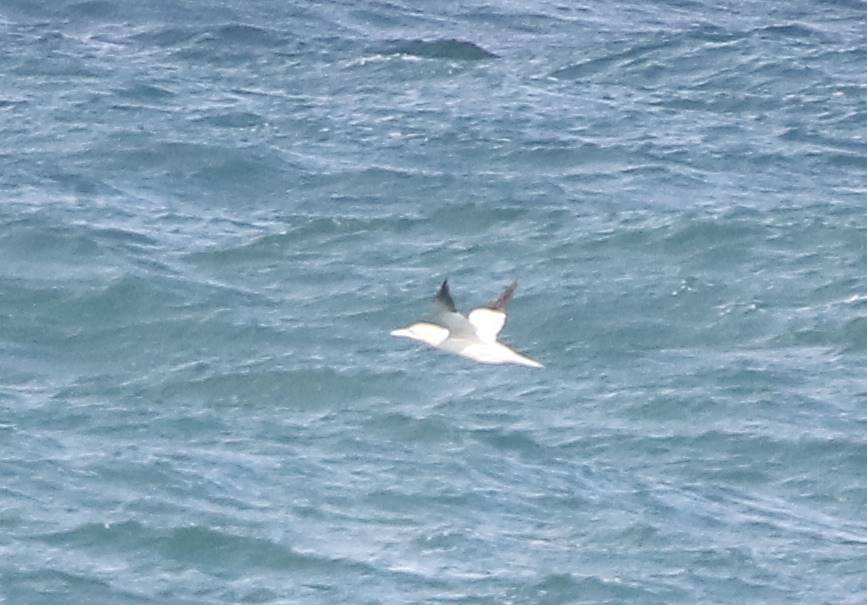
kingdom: Animalia
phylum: Chordata
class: Aves
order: Suliformes
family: Sulidae
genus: Morus
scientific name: Morus bassanus
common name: Northern gannet
